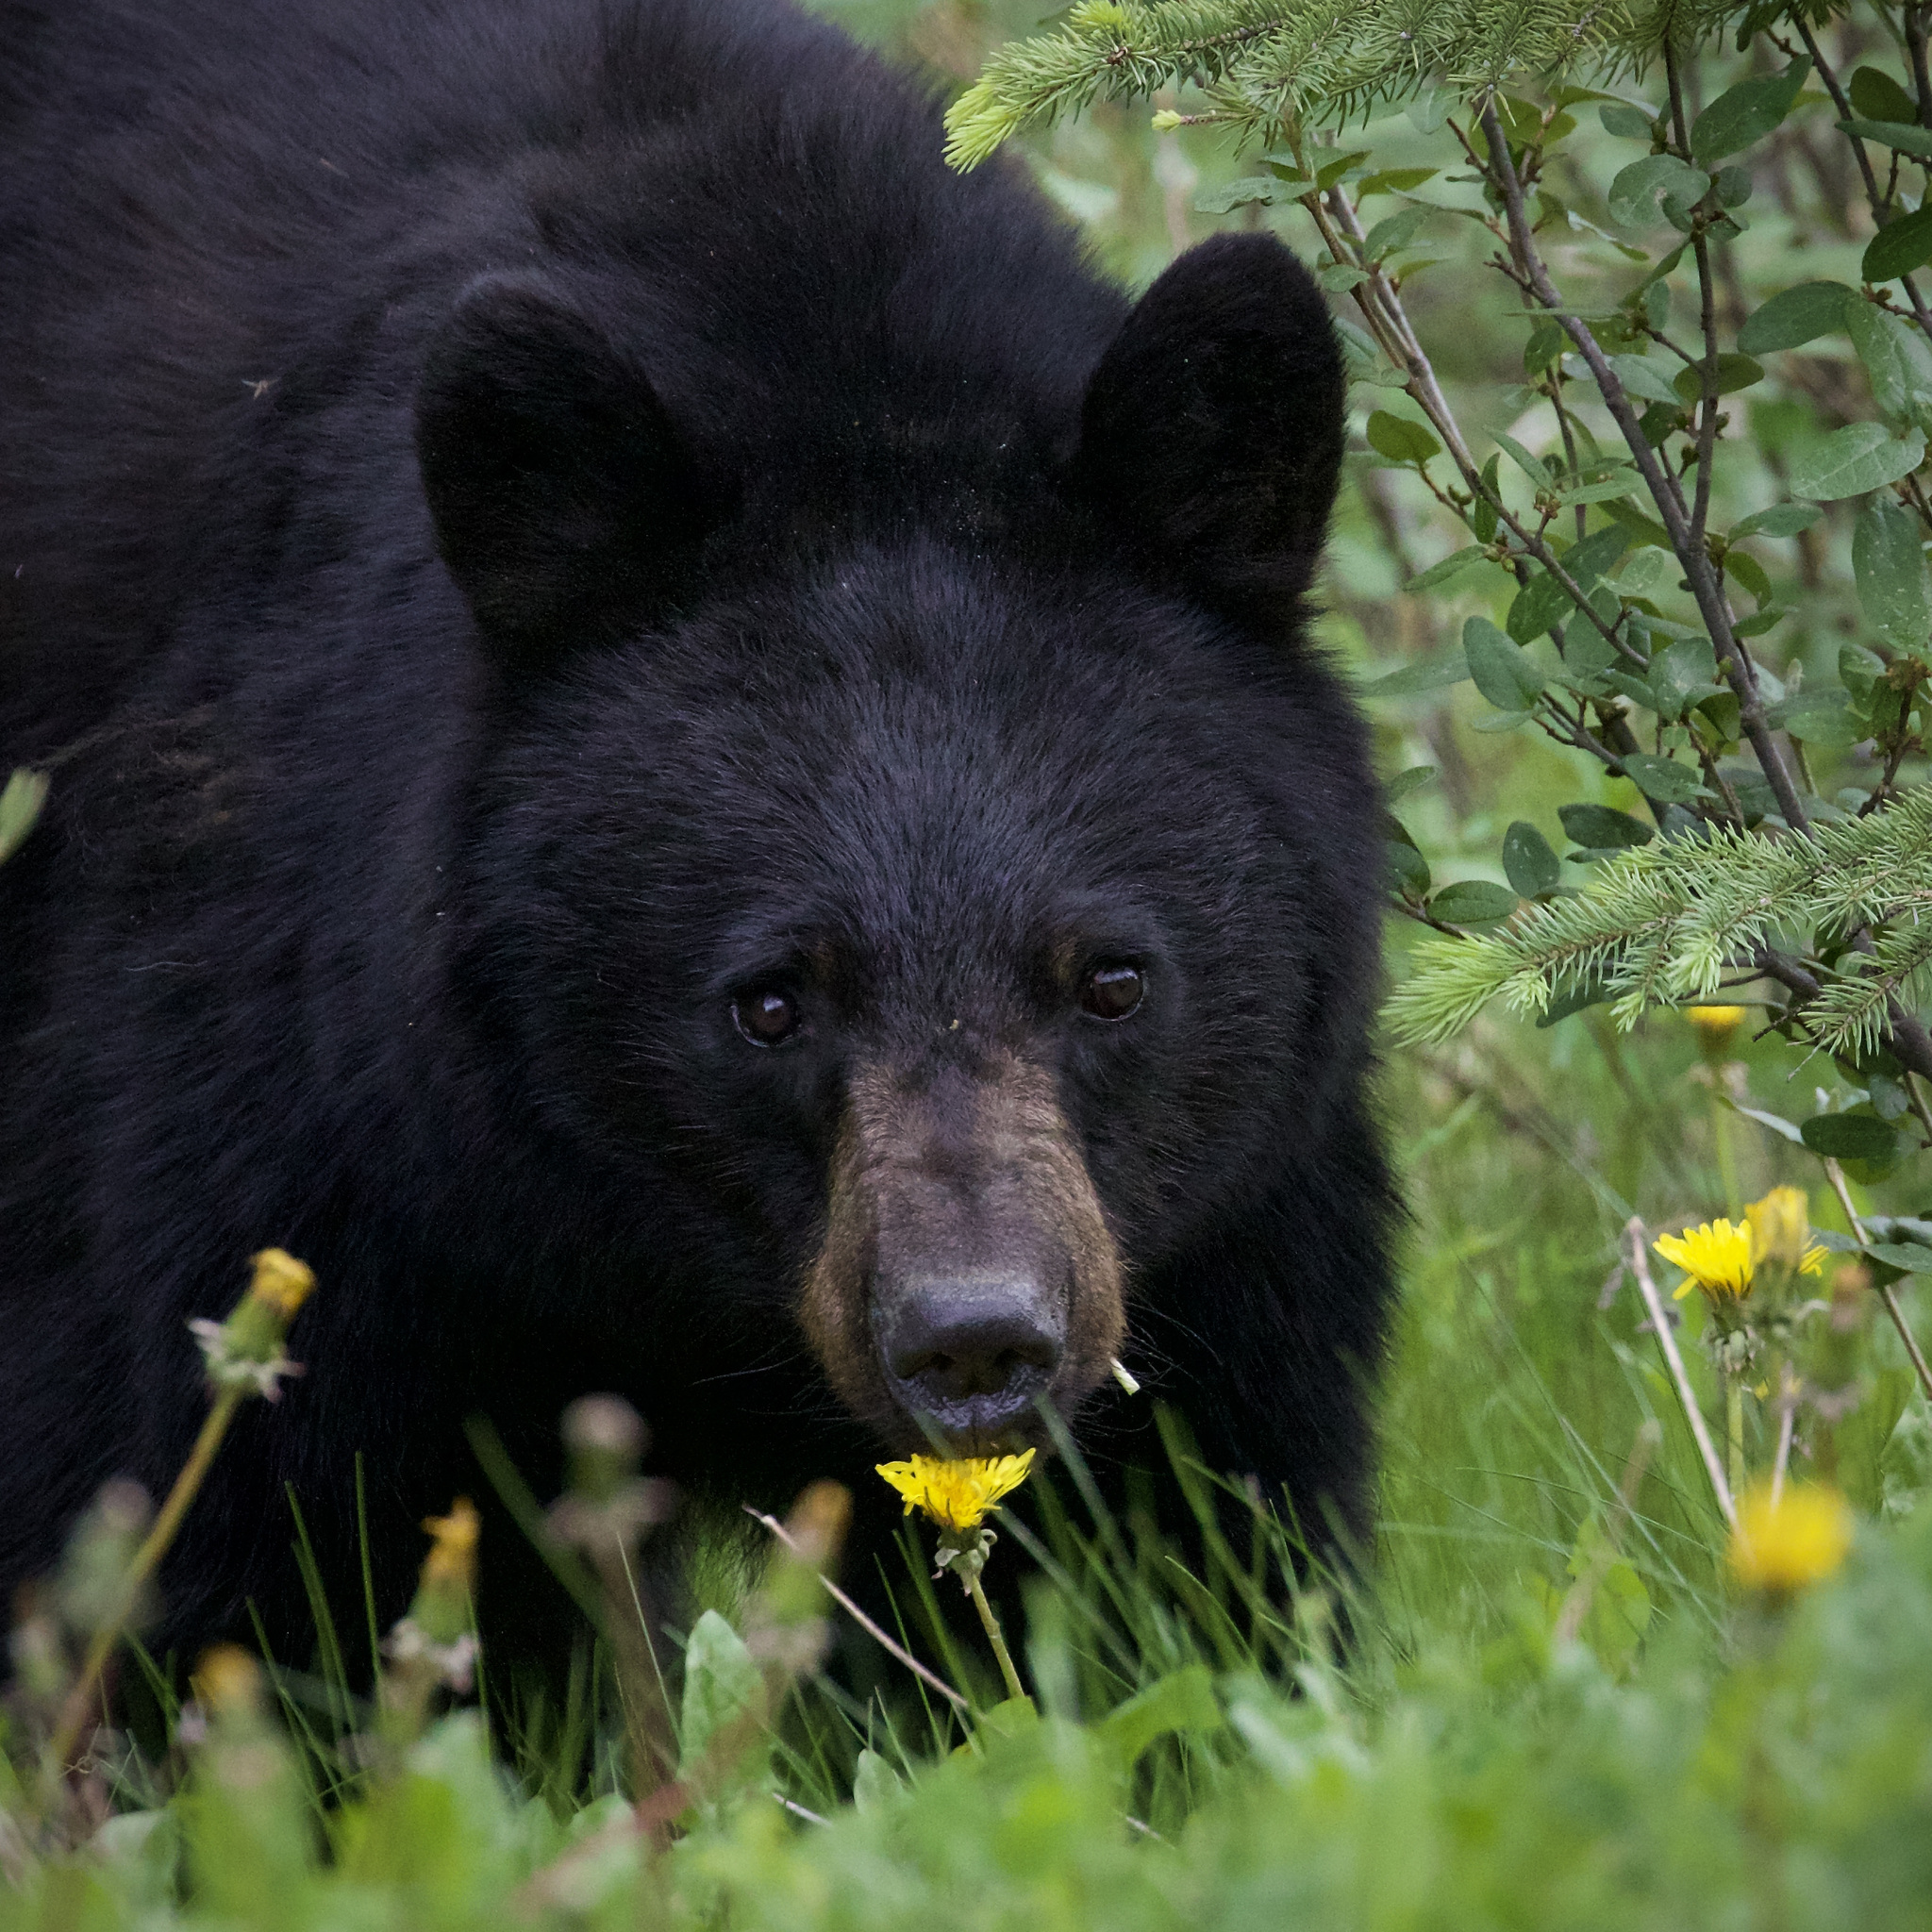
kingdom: Animalia
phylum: Chordata
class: Mammalia
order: Carnivora
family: Ursidae
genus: Ursus
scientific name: Ursus americanus
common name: American black bear
